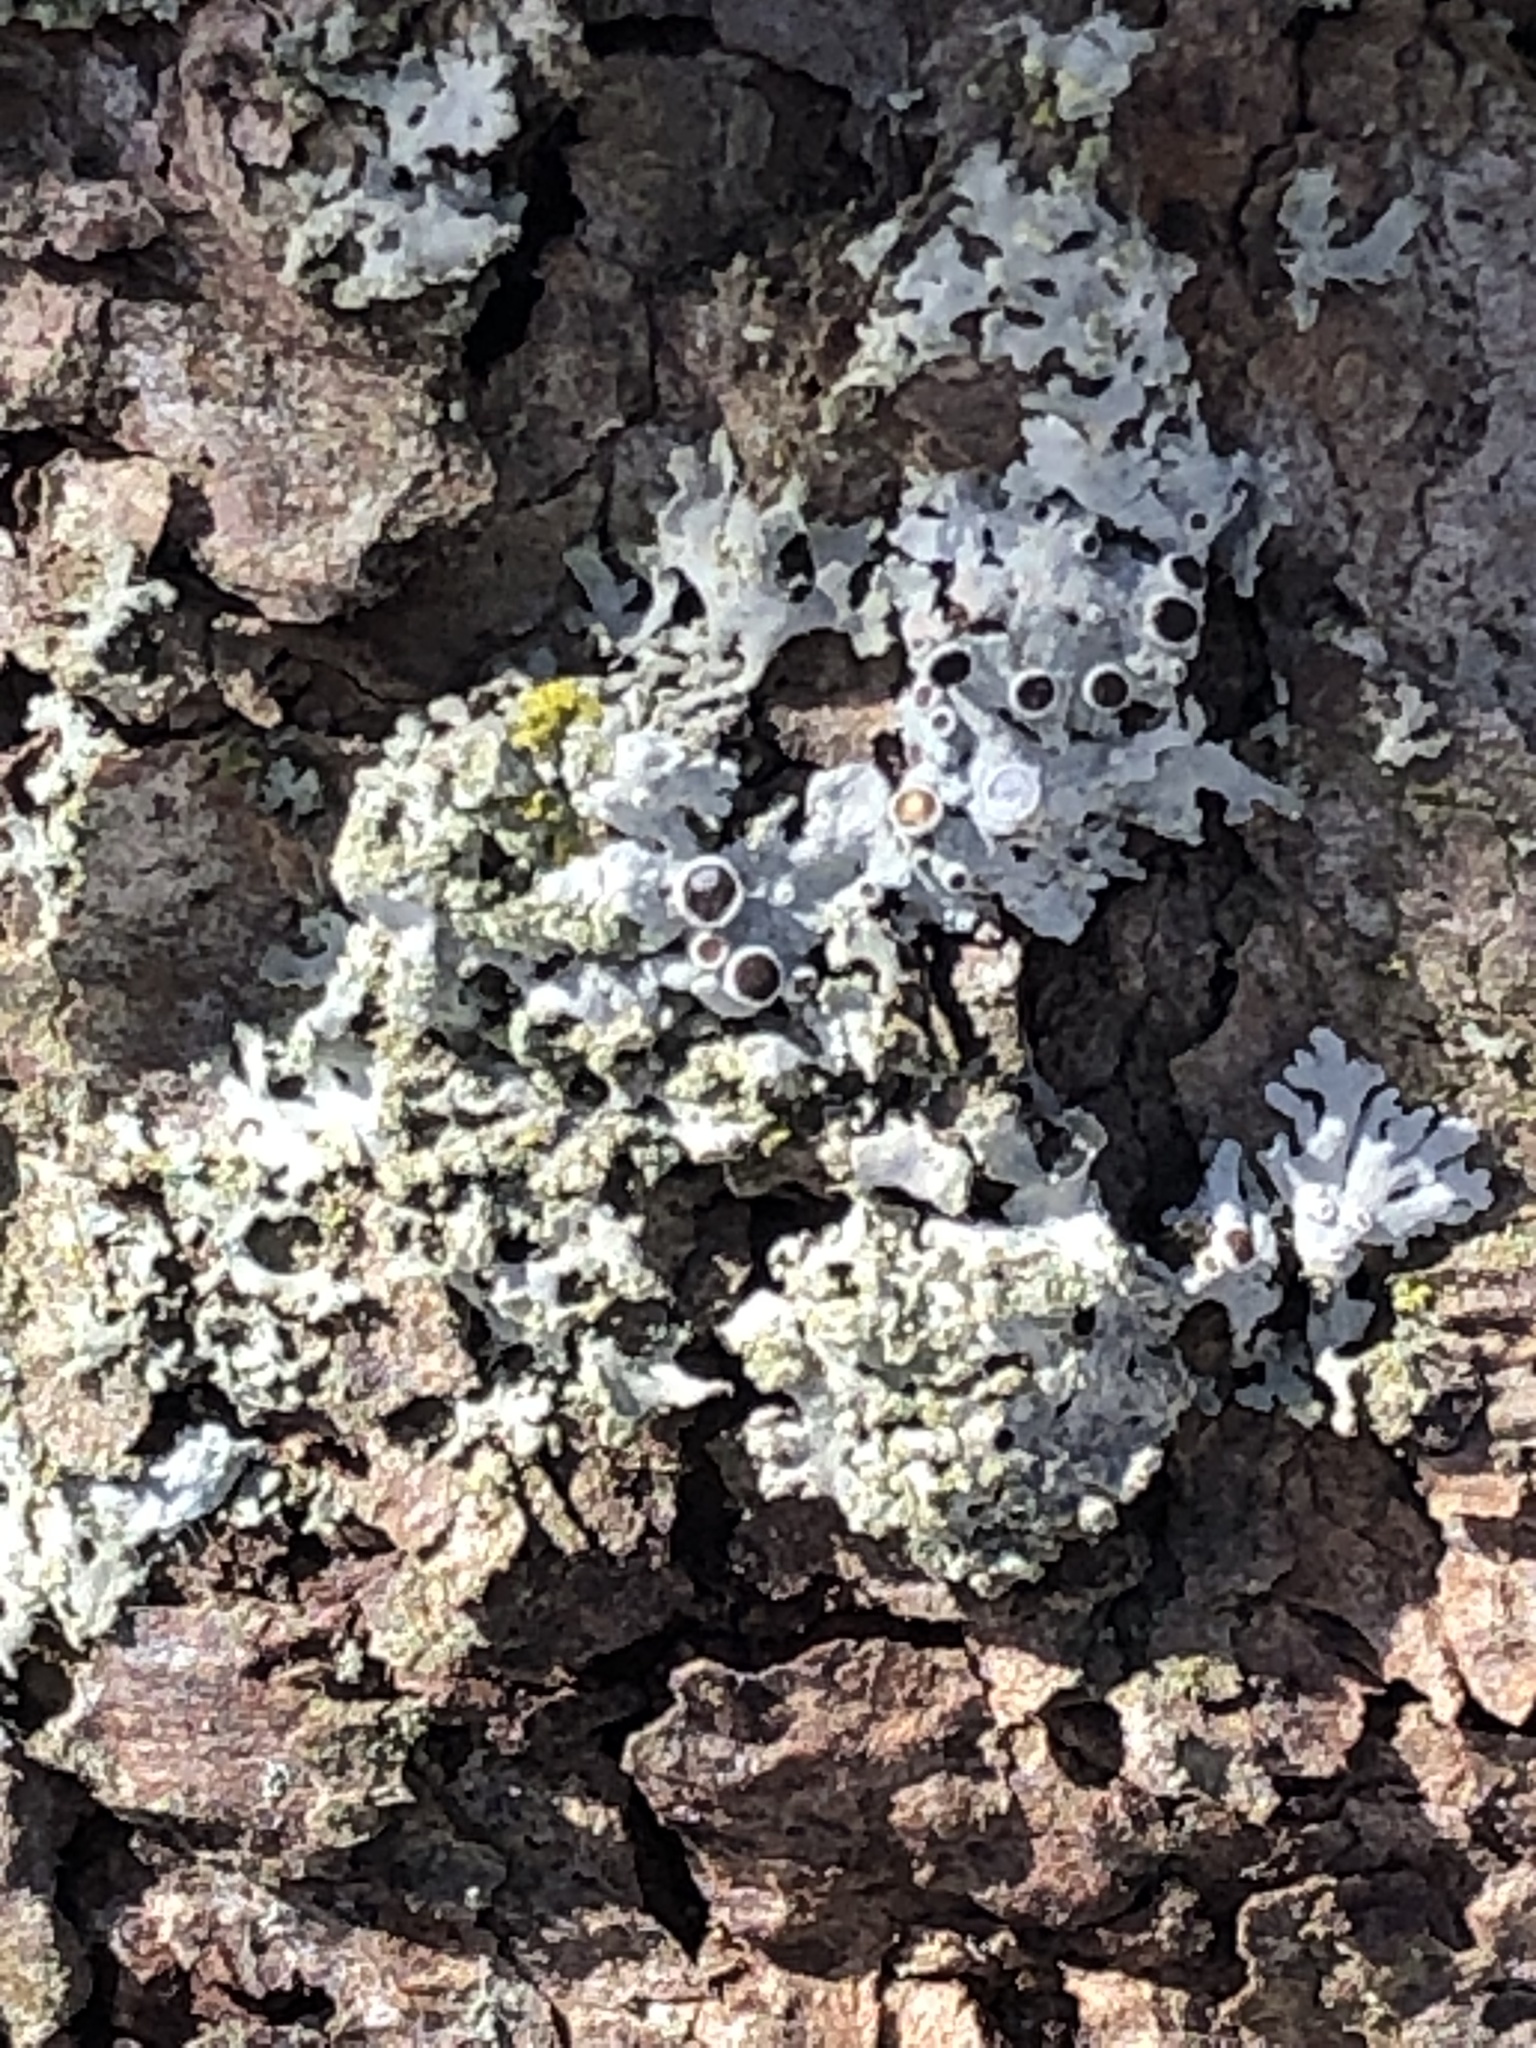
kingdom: Fungi
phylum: Ascomycota
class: Lecanoromycetes
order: Caliciales
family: Physciaceae
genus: Physcia
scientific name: Physcia millegrana
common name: Rosette lichen
